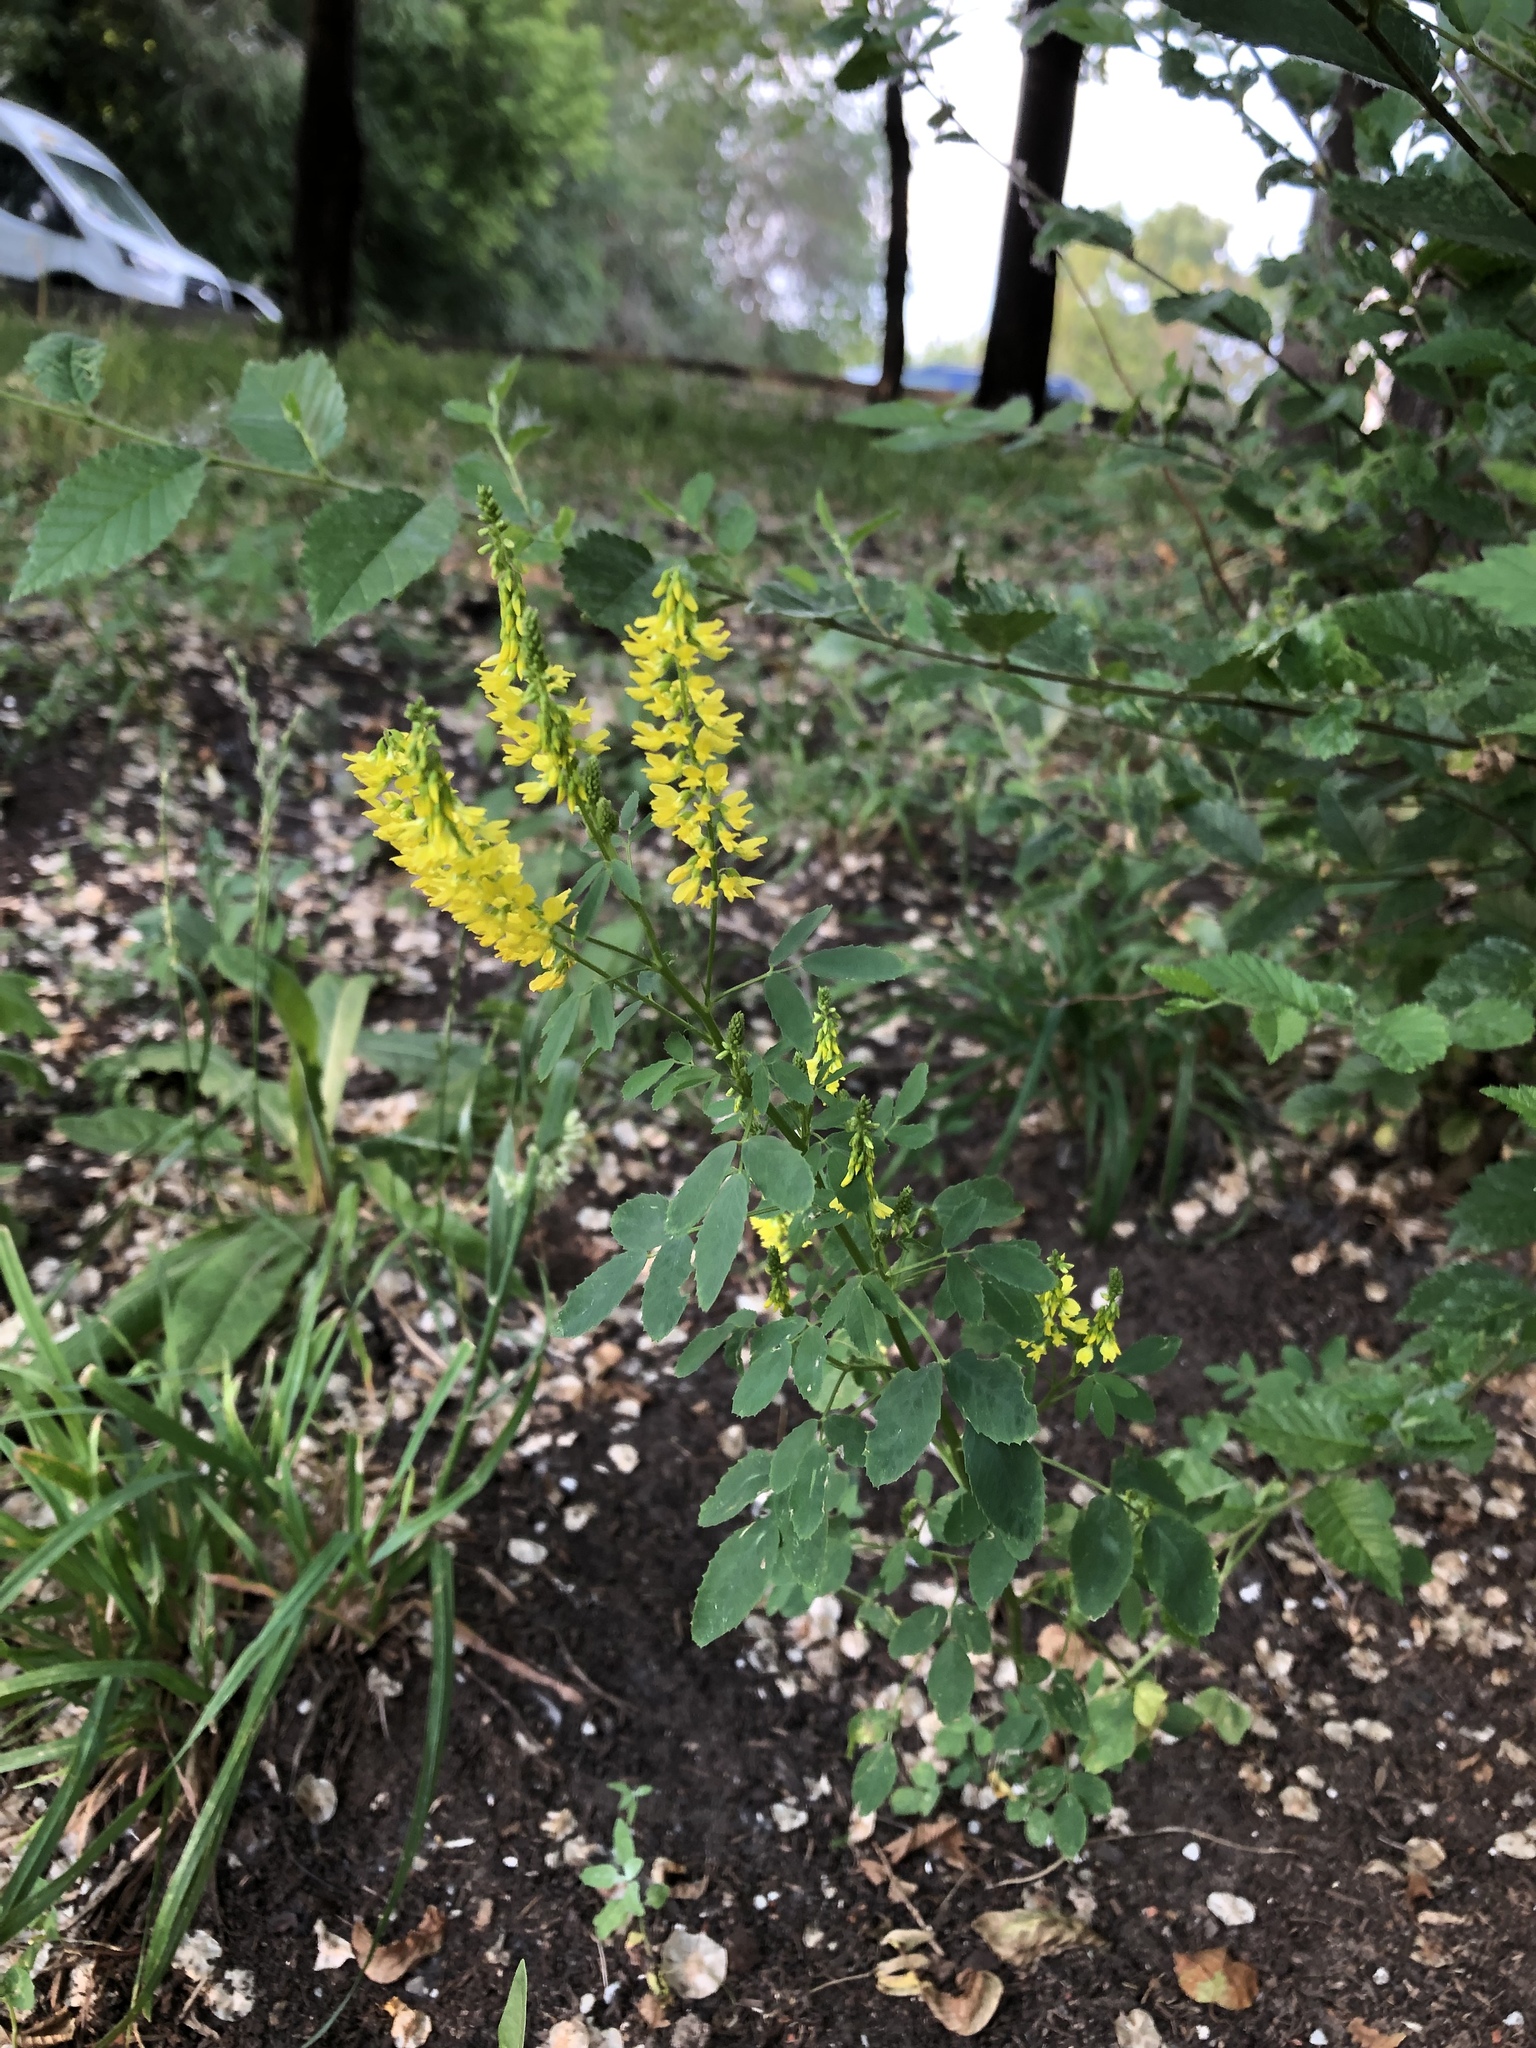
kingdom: Plantae
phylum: Tracheophyta
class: Magnoliopsida
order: Fabales
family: Fabaceae
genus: Melilotus
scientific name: Melilotus officinalis
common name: Sweetclover
